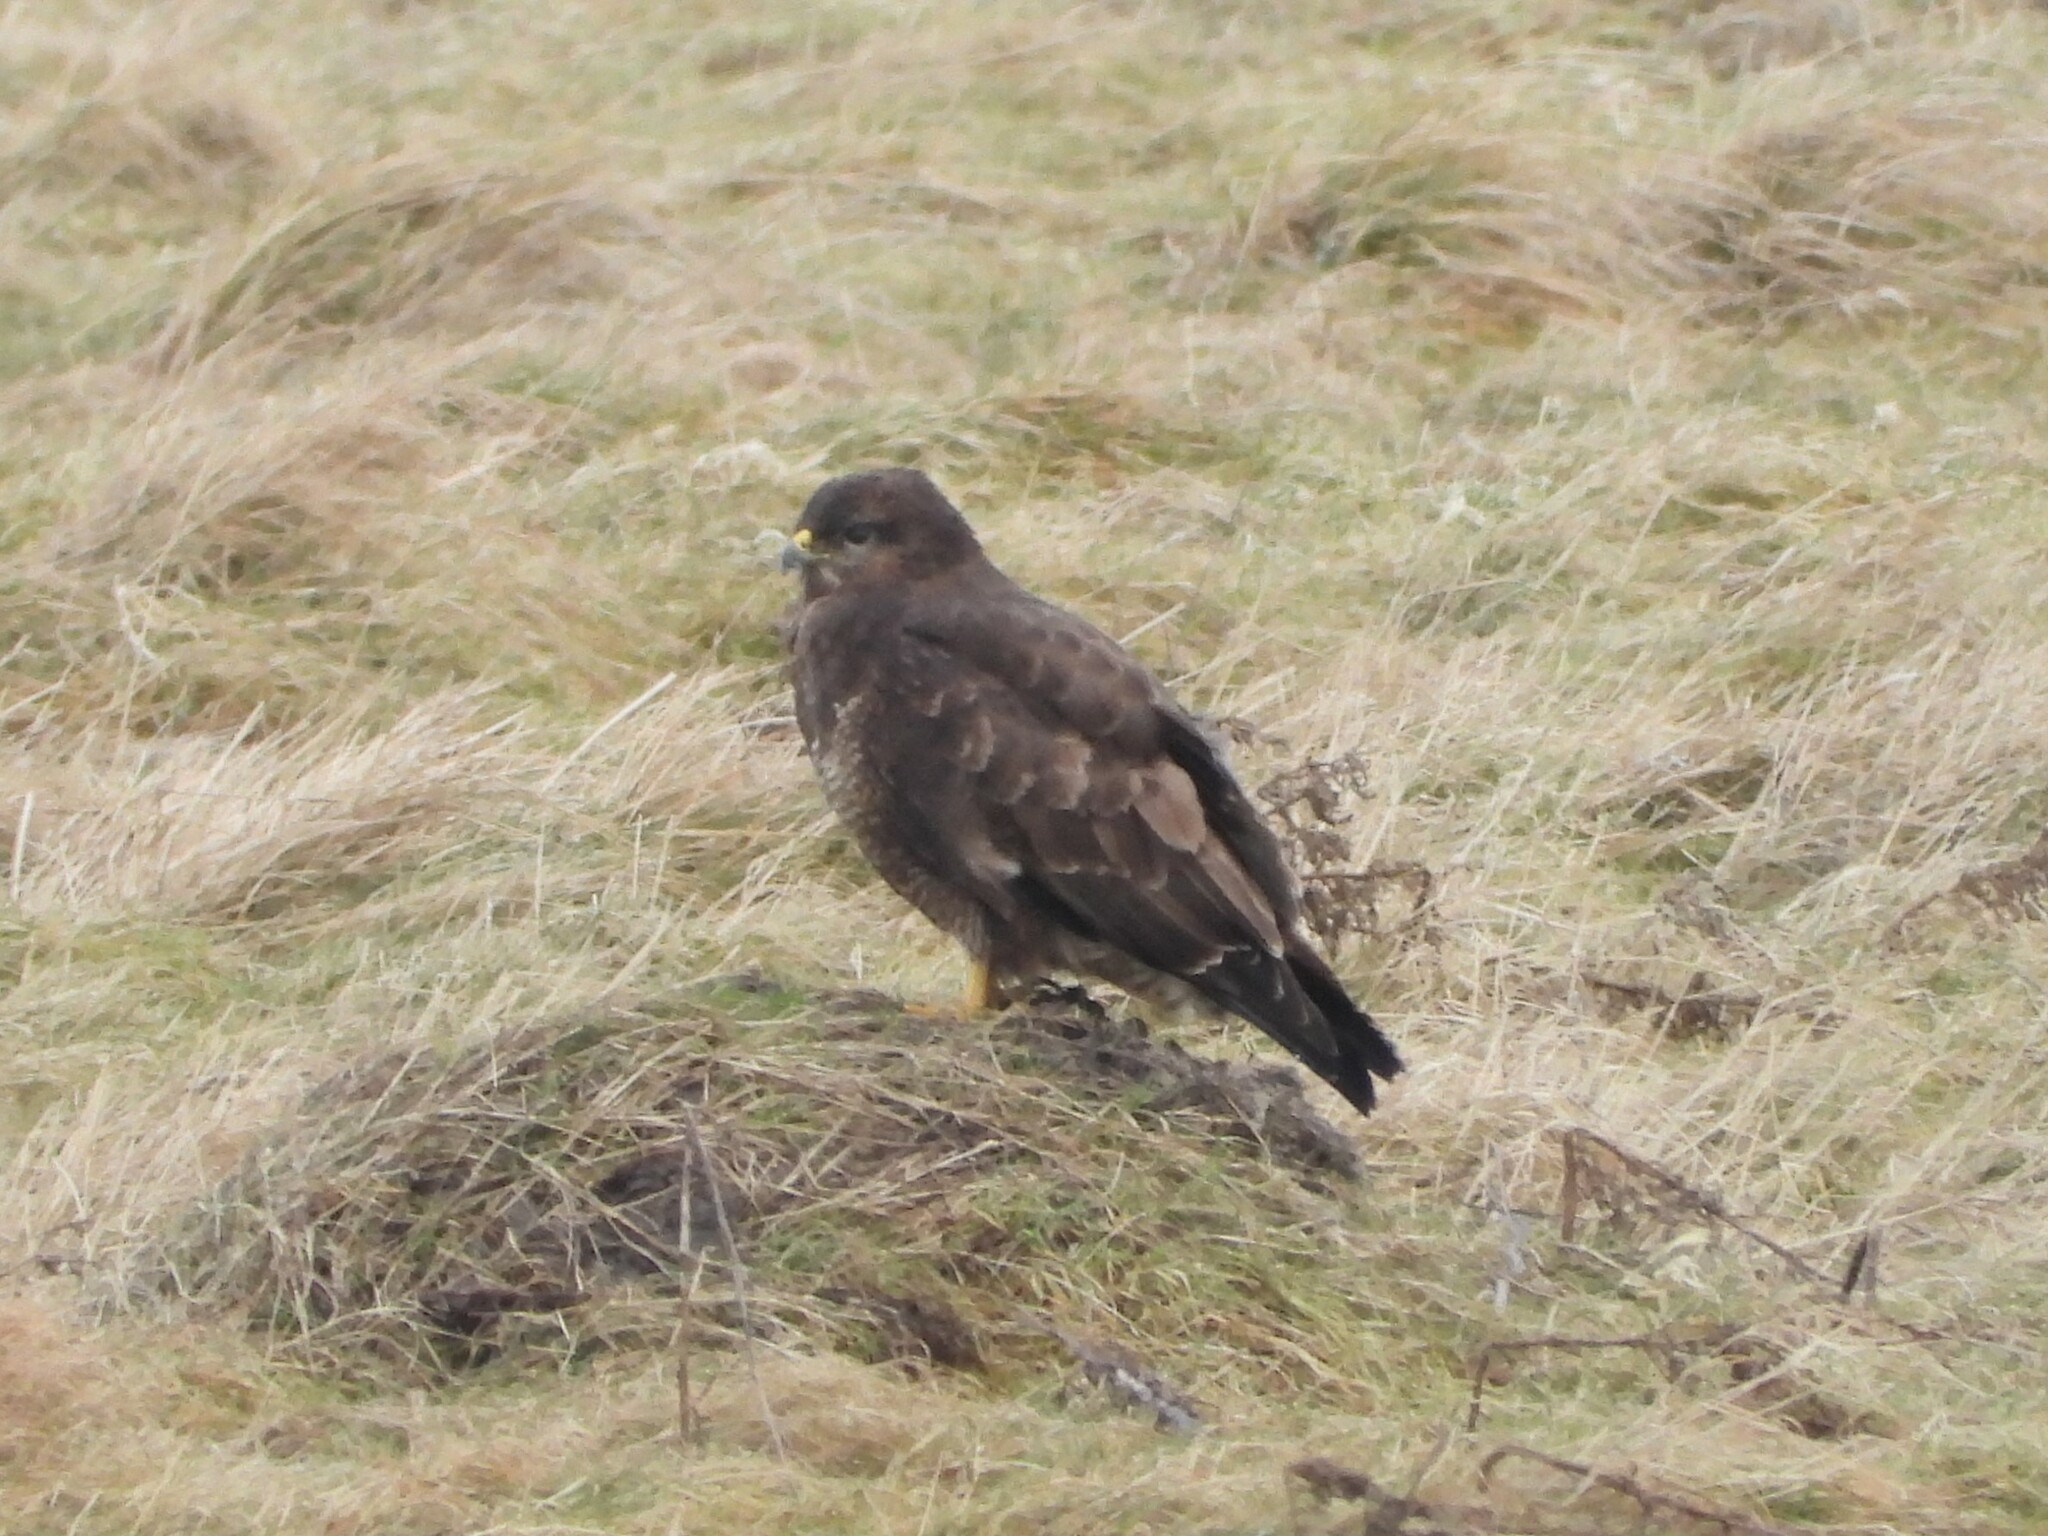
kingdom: Animalia
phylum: Chordata
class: Aves
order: Accipitriformes
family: Accipitridae
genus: Buteo
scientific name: Buteo buteo
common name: Common buzzard
